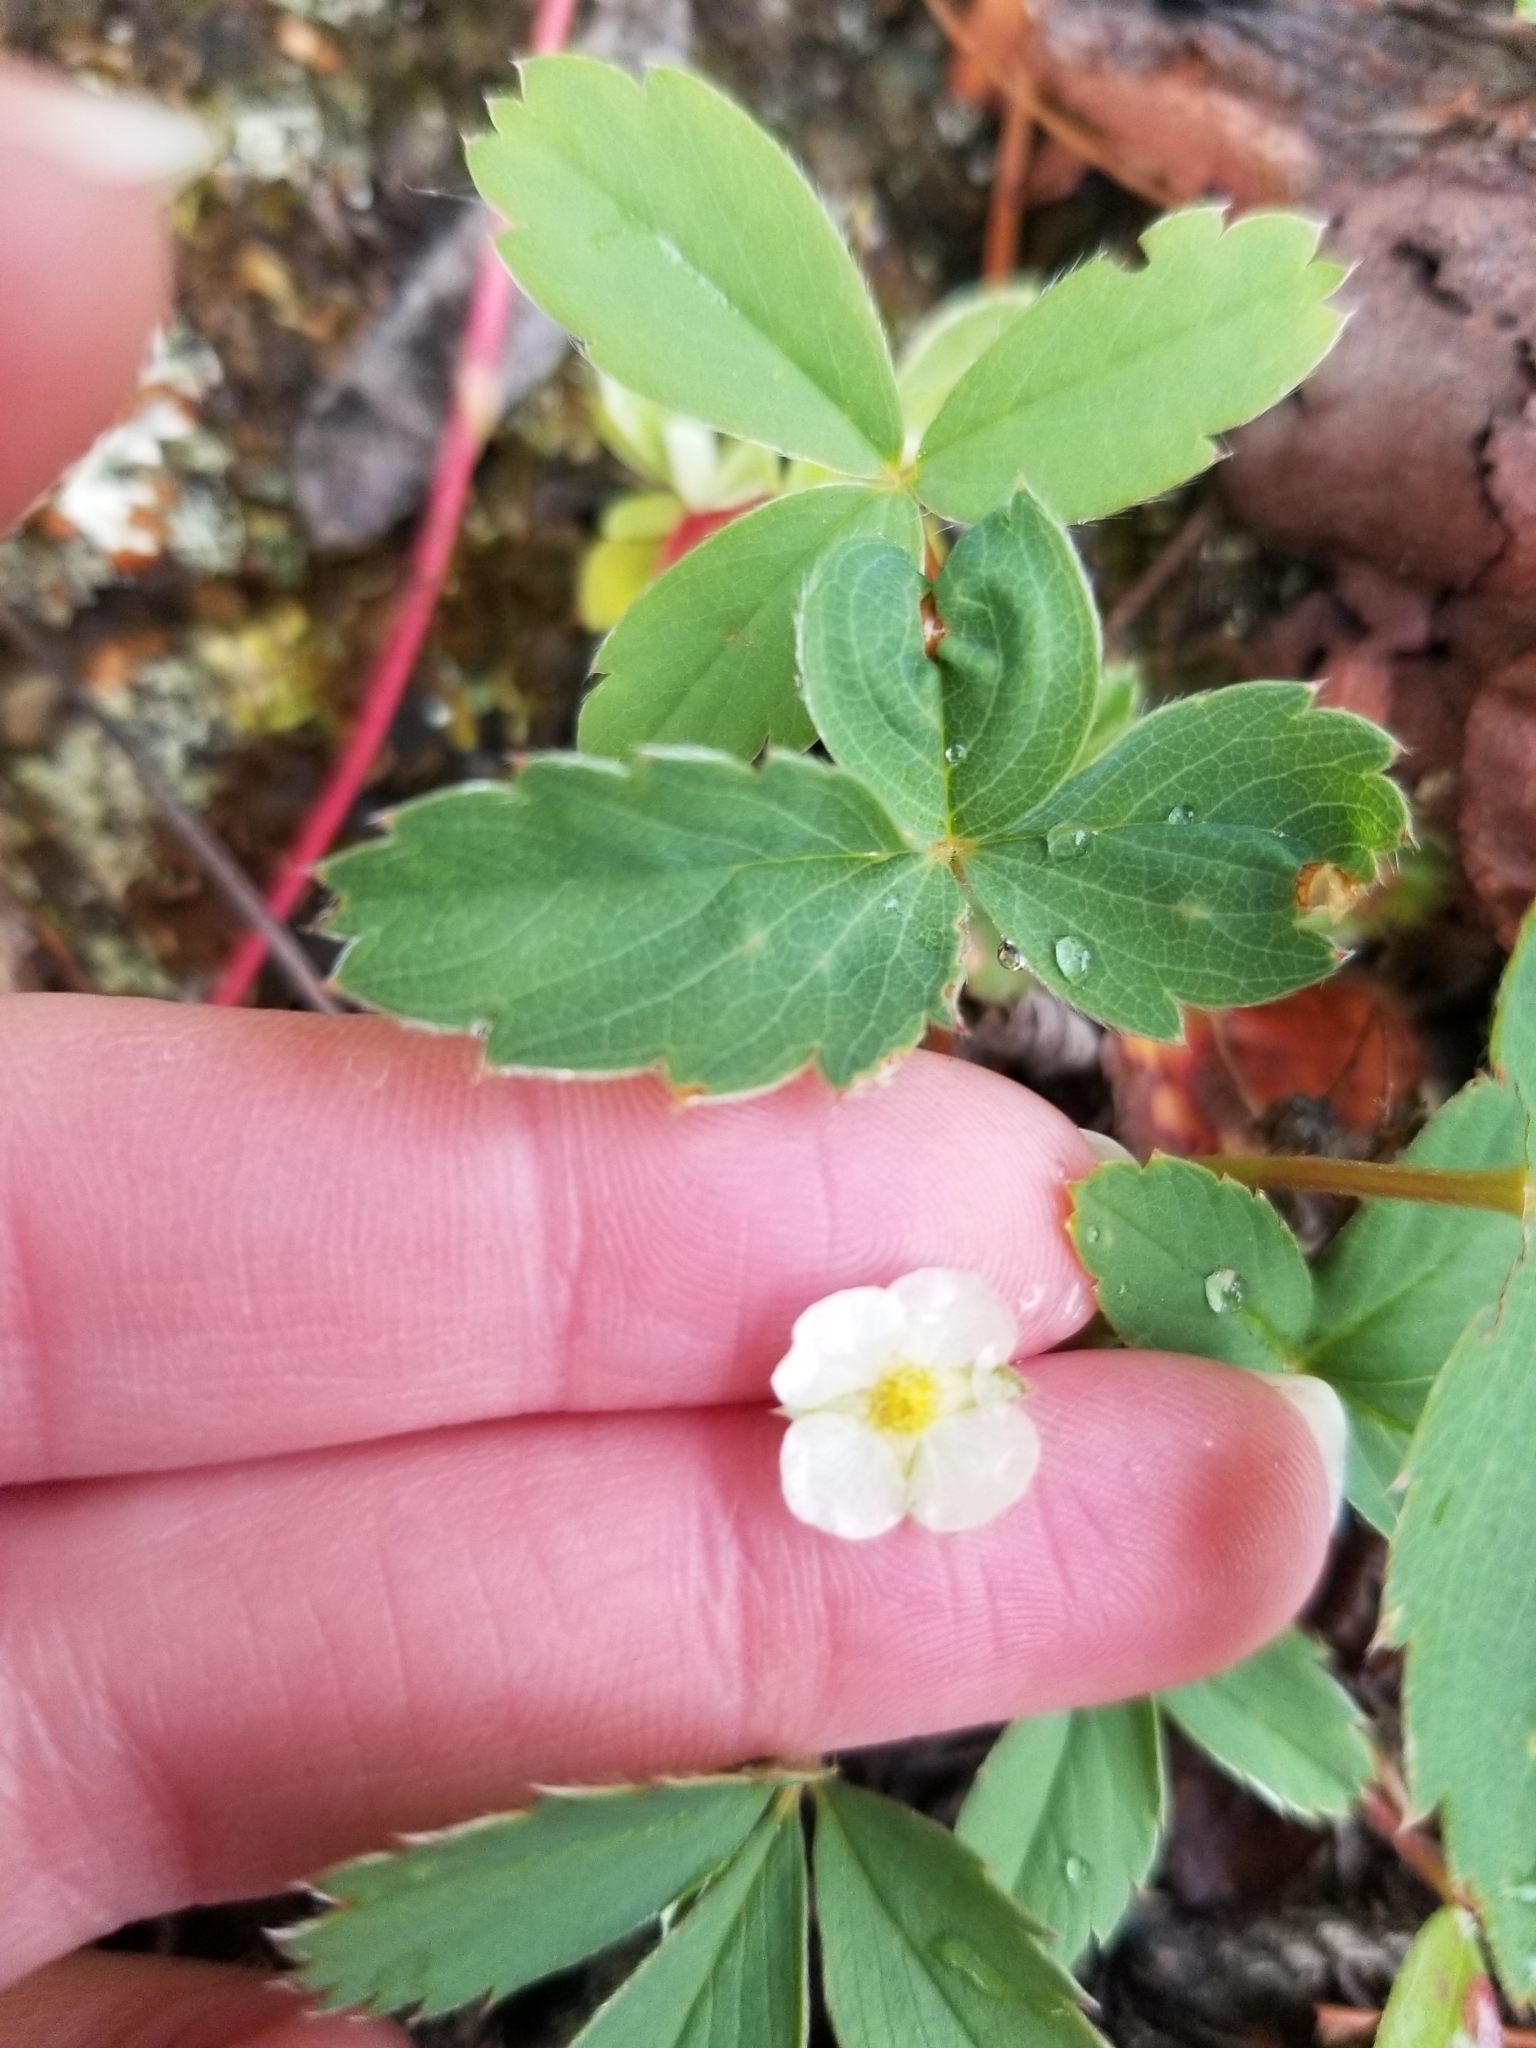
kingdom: Plantae
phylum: Tracheophyta
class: Magnoliopsida
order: Rosales
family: Rosaceae
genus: Fragaria
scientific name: Fragaria virginiana
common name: Thickleaved wild strawberry
